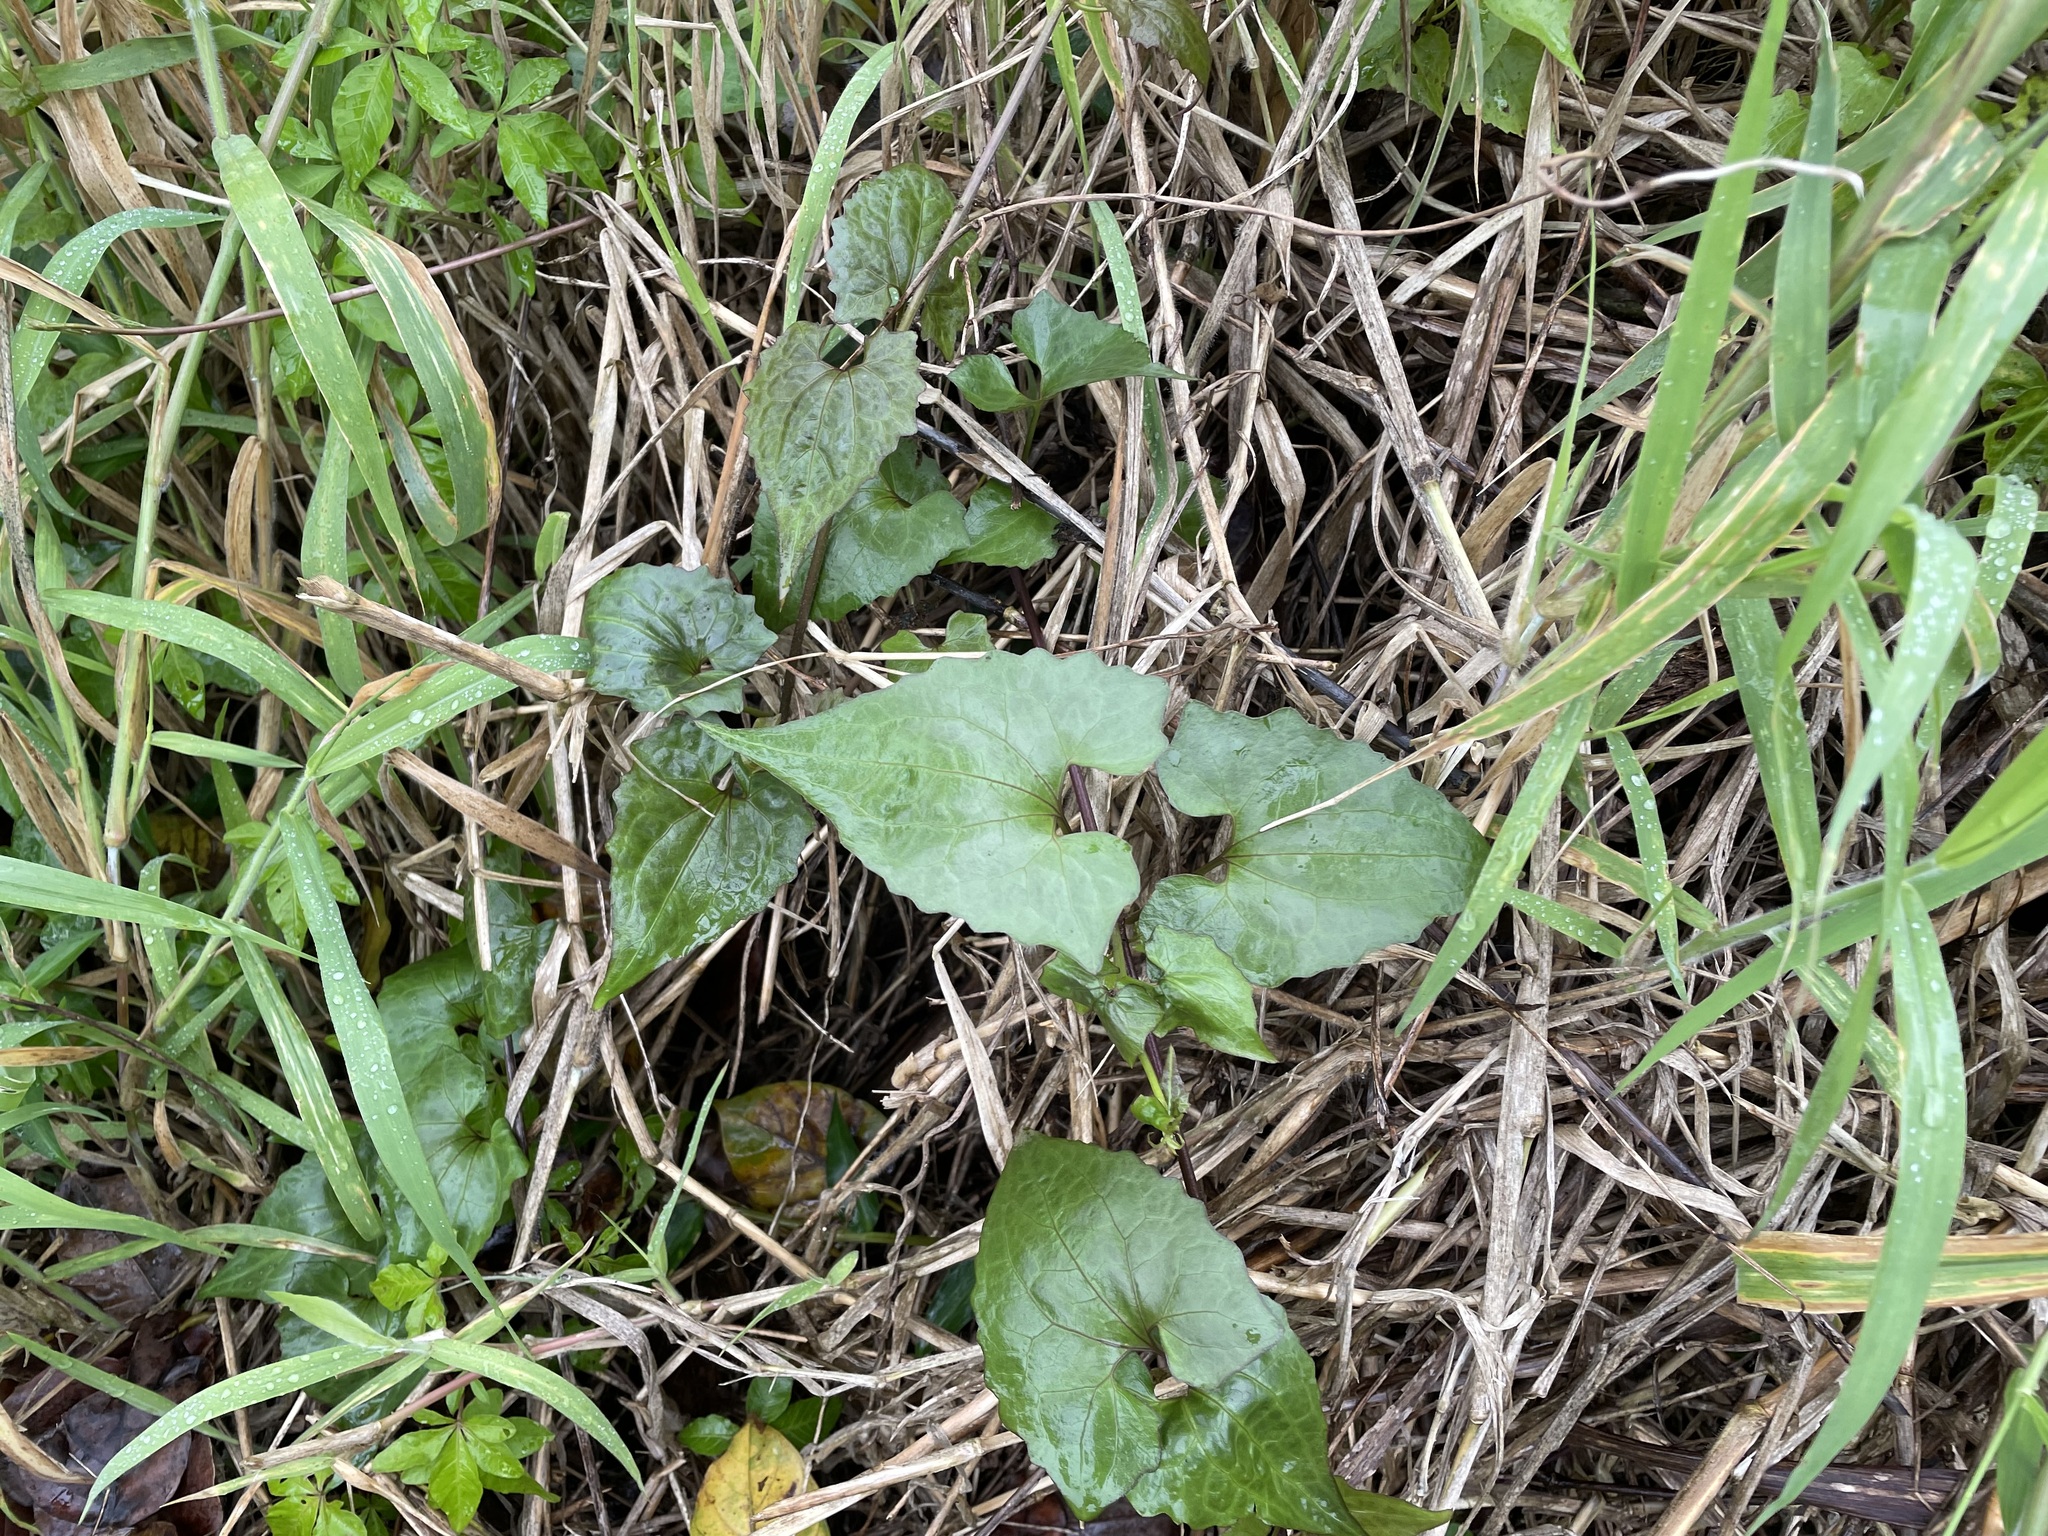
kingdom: Plantae
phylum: Tracheophyta
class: Magnoliopsida
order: Asterales
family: Asteraceae
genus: Mikania
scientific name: Mikania micrantha
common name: Mile-a-minute
